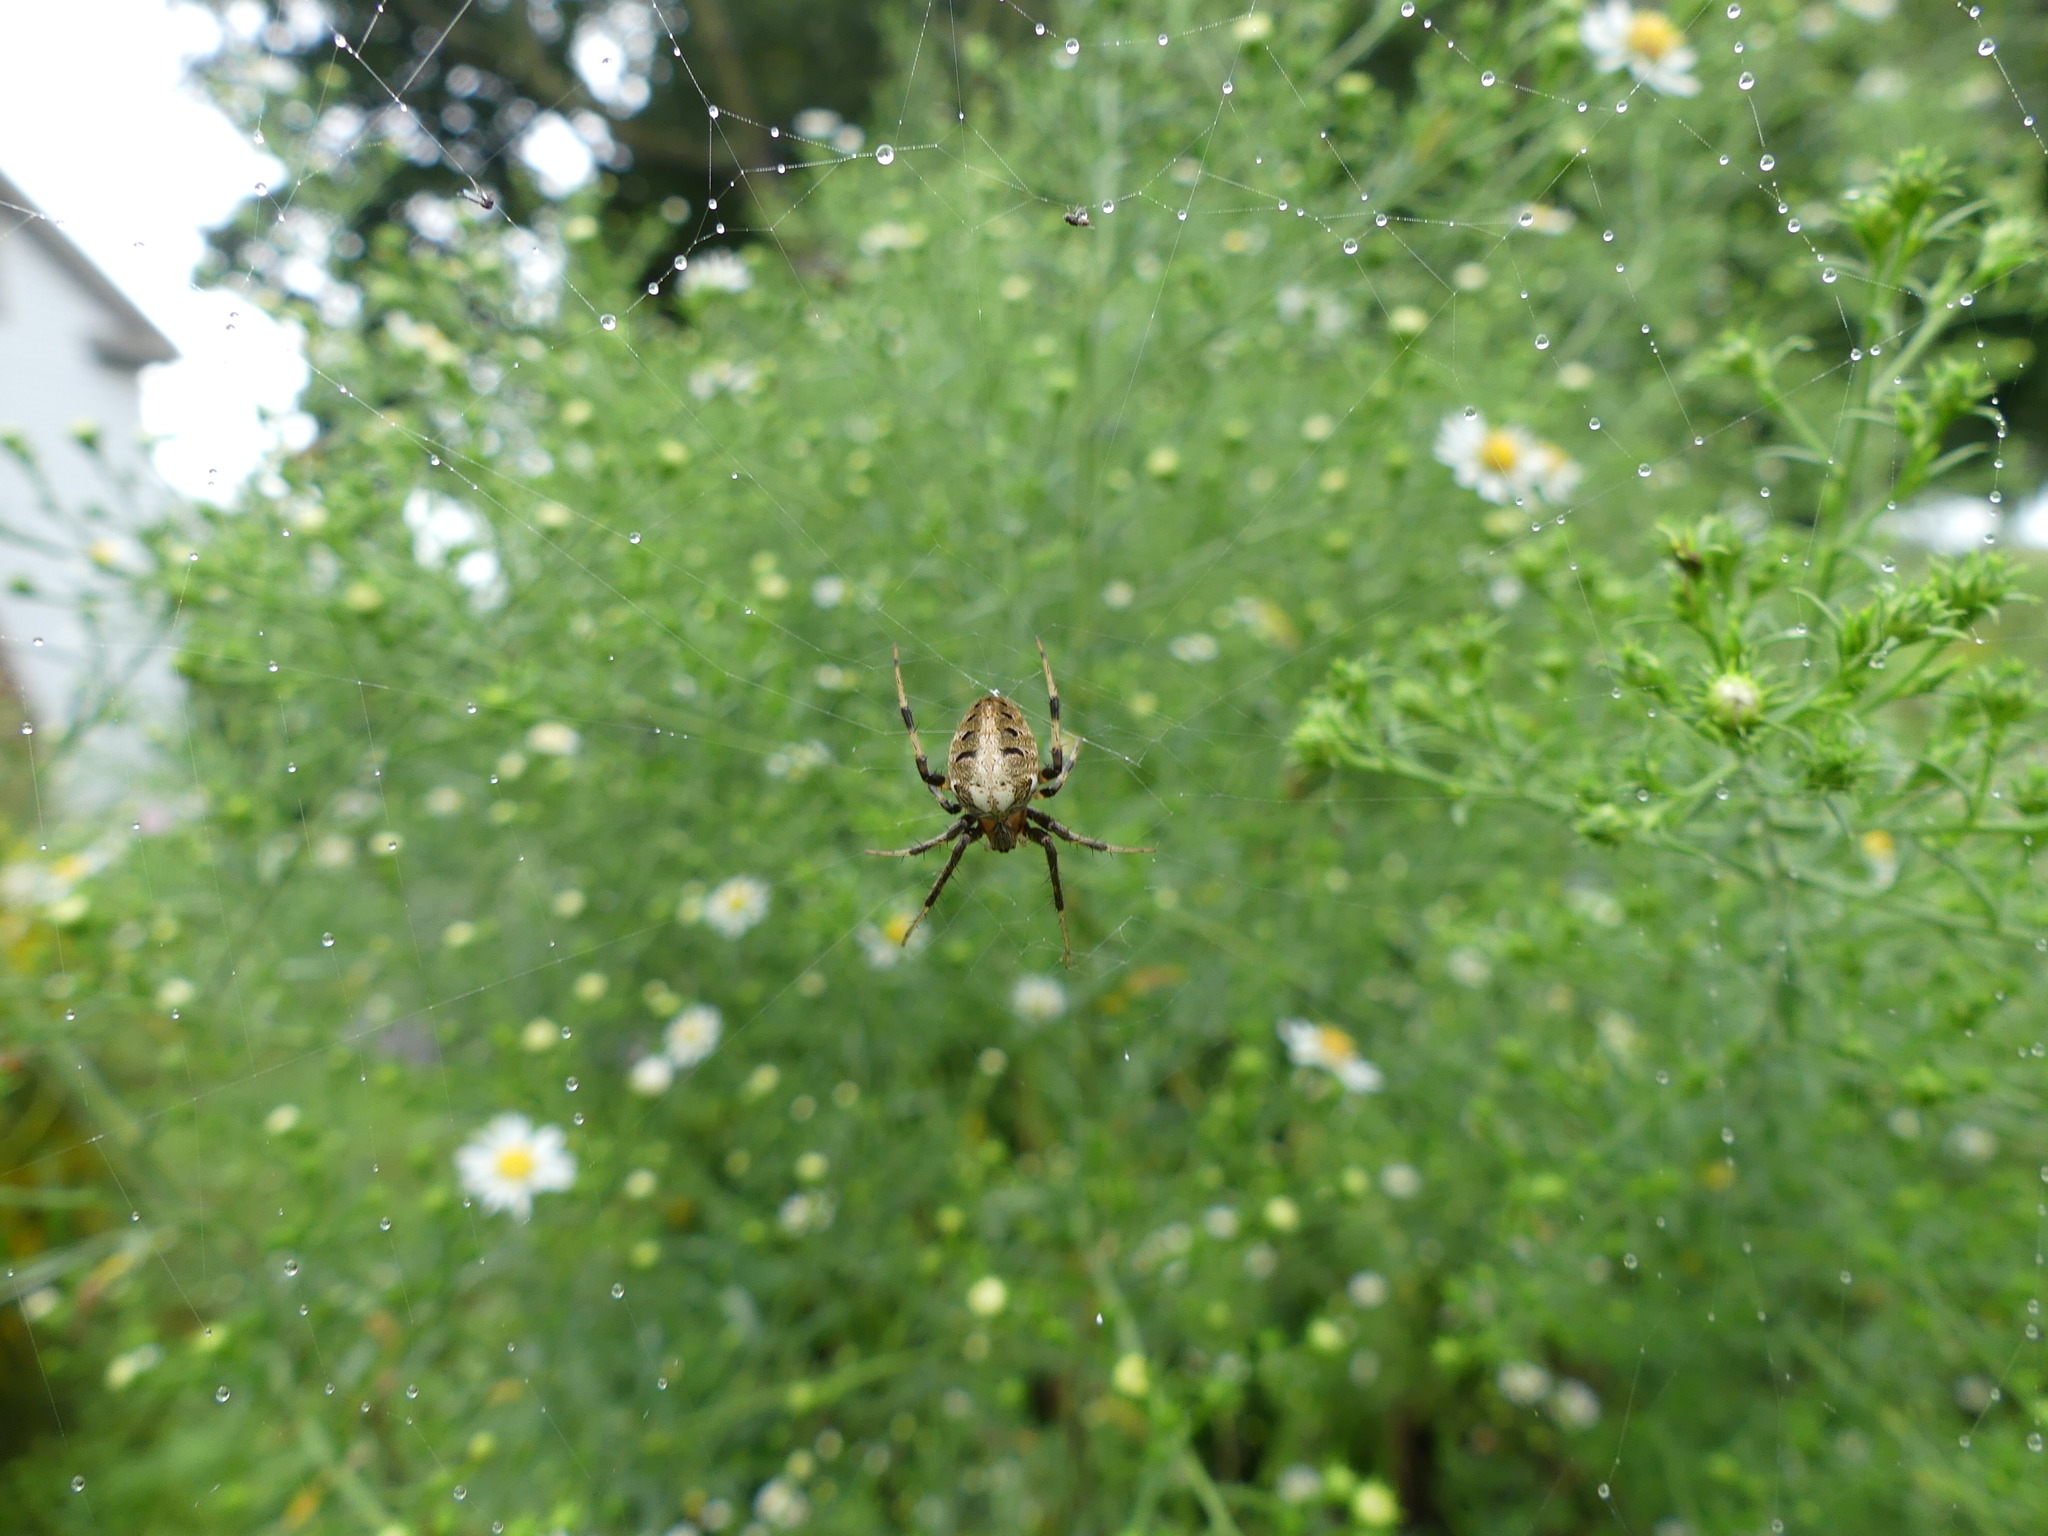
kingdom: Animalia
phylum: Arthropoda
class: Arachnida
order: Araneae
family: Araneidae
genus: Neoscona
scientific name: Neoscona arabesca
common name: Orb weavers
